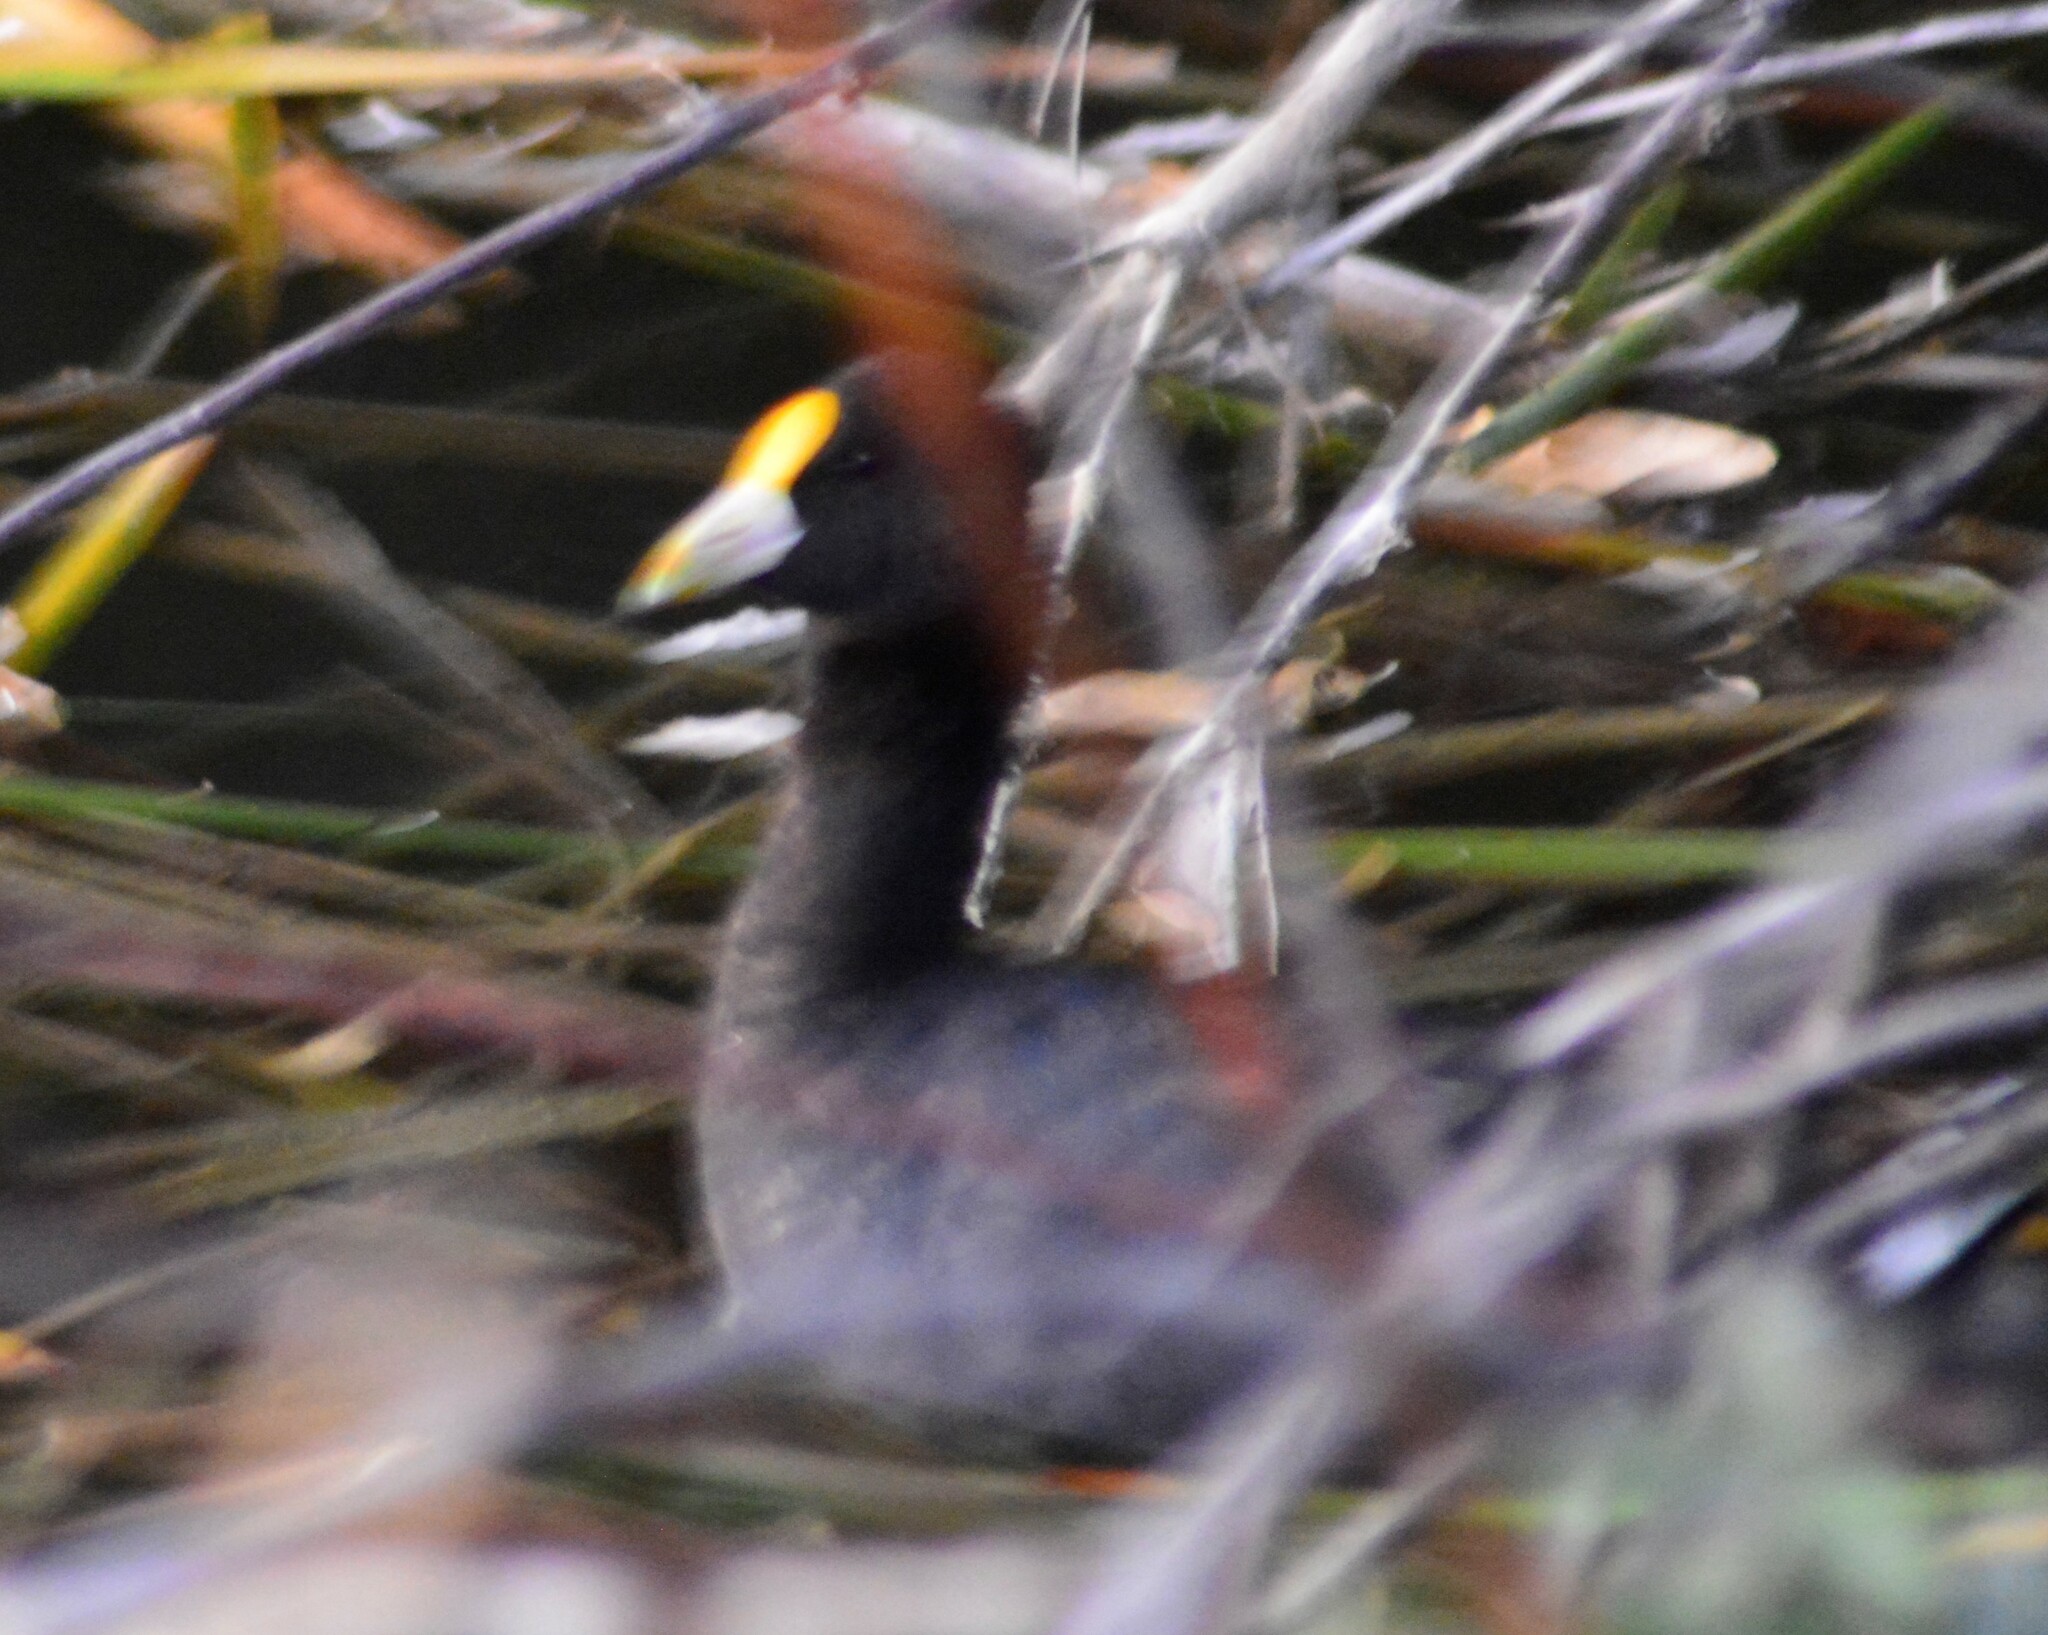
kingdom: Animalia
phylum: Chordata
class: Aves
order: Gruiformes
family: Rallidae
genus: Fulica
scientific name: Fulica leucoptera
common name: White-winged coot
